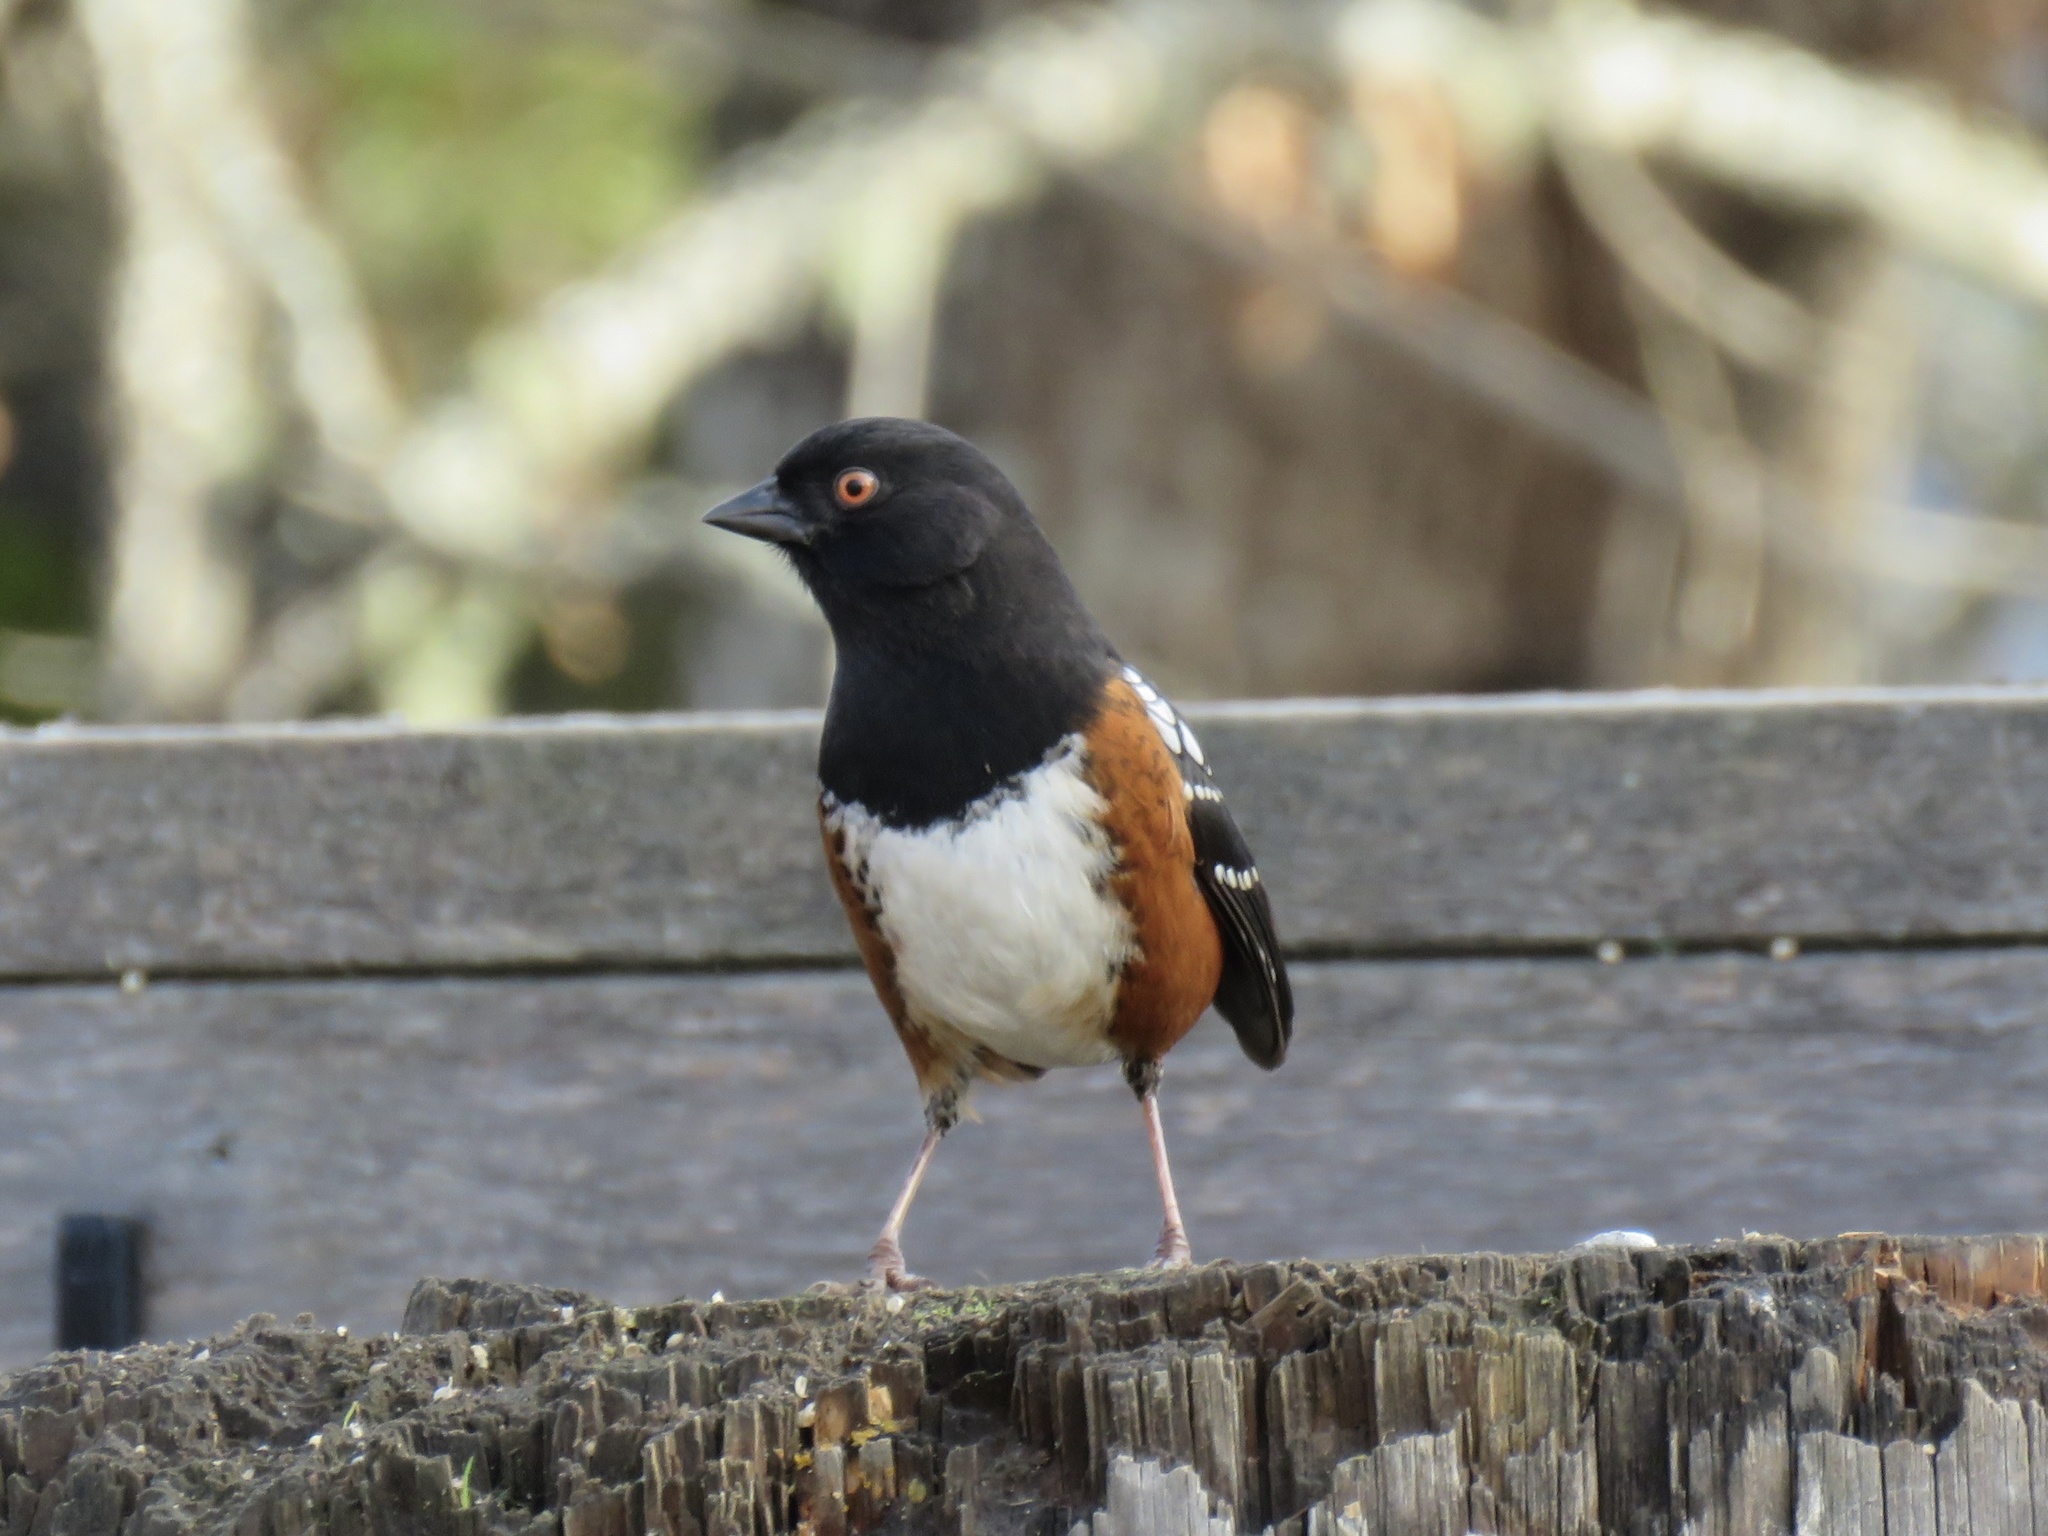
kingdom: Animalia
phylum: Chordata
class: Aves
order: Passeriformes
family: Passerellidae
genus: Pipilo
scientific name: Pipilo maculatus
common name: Spotted towhee
